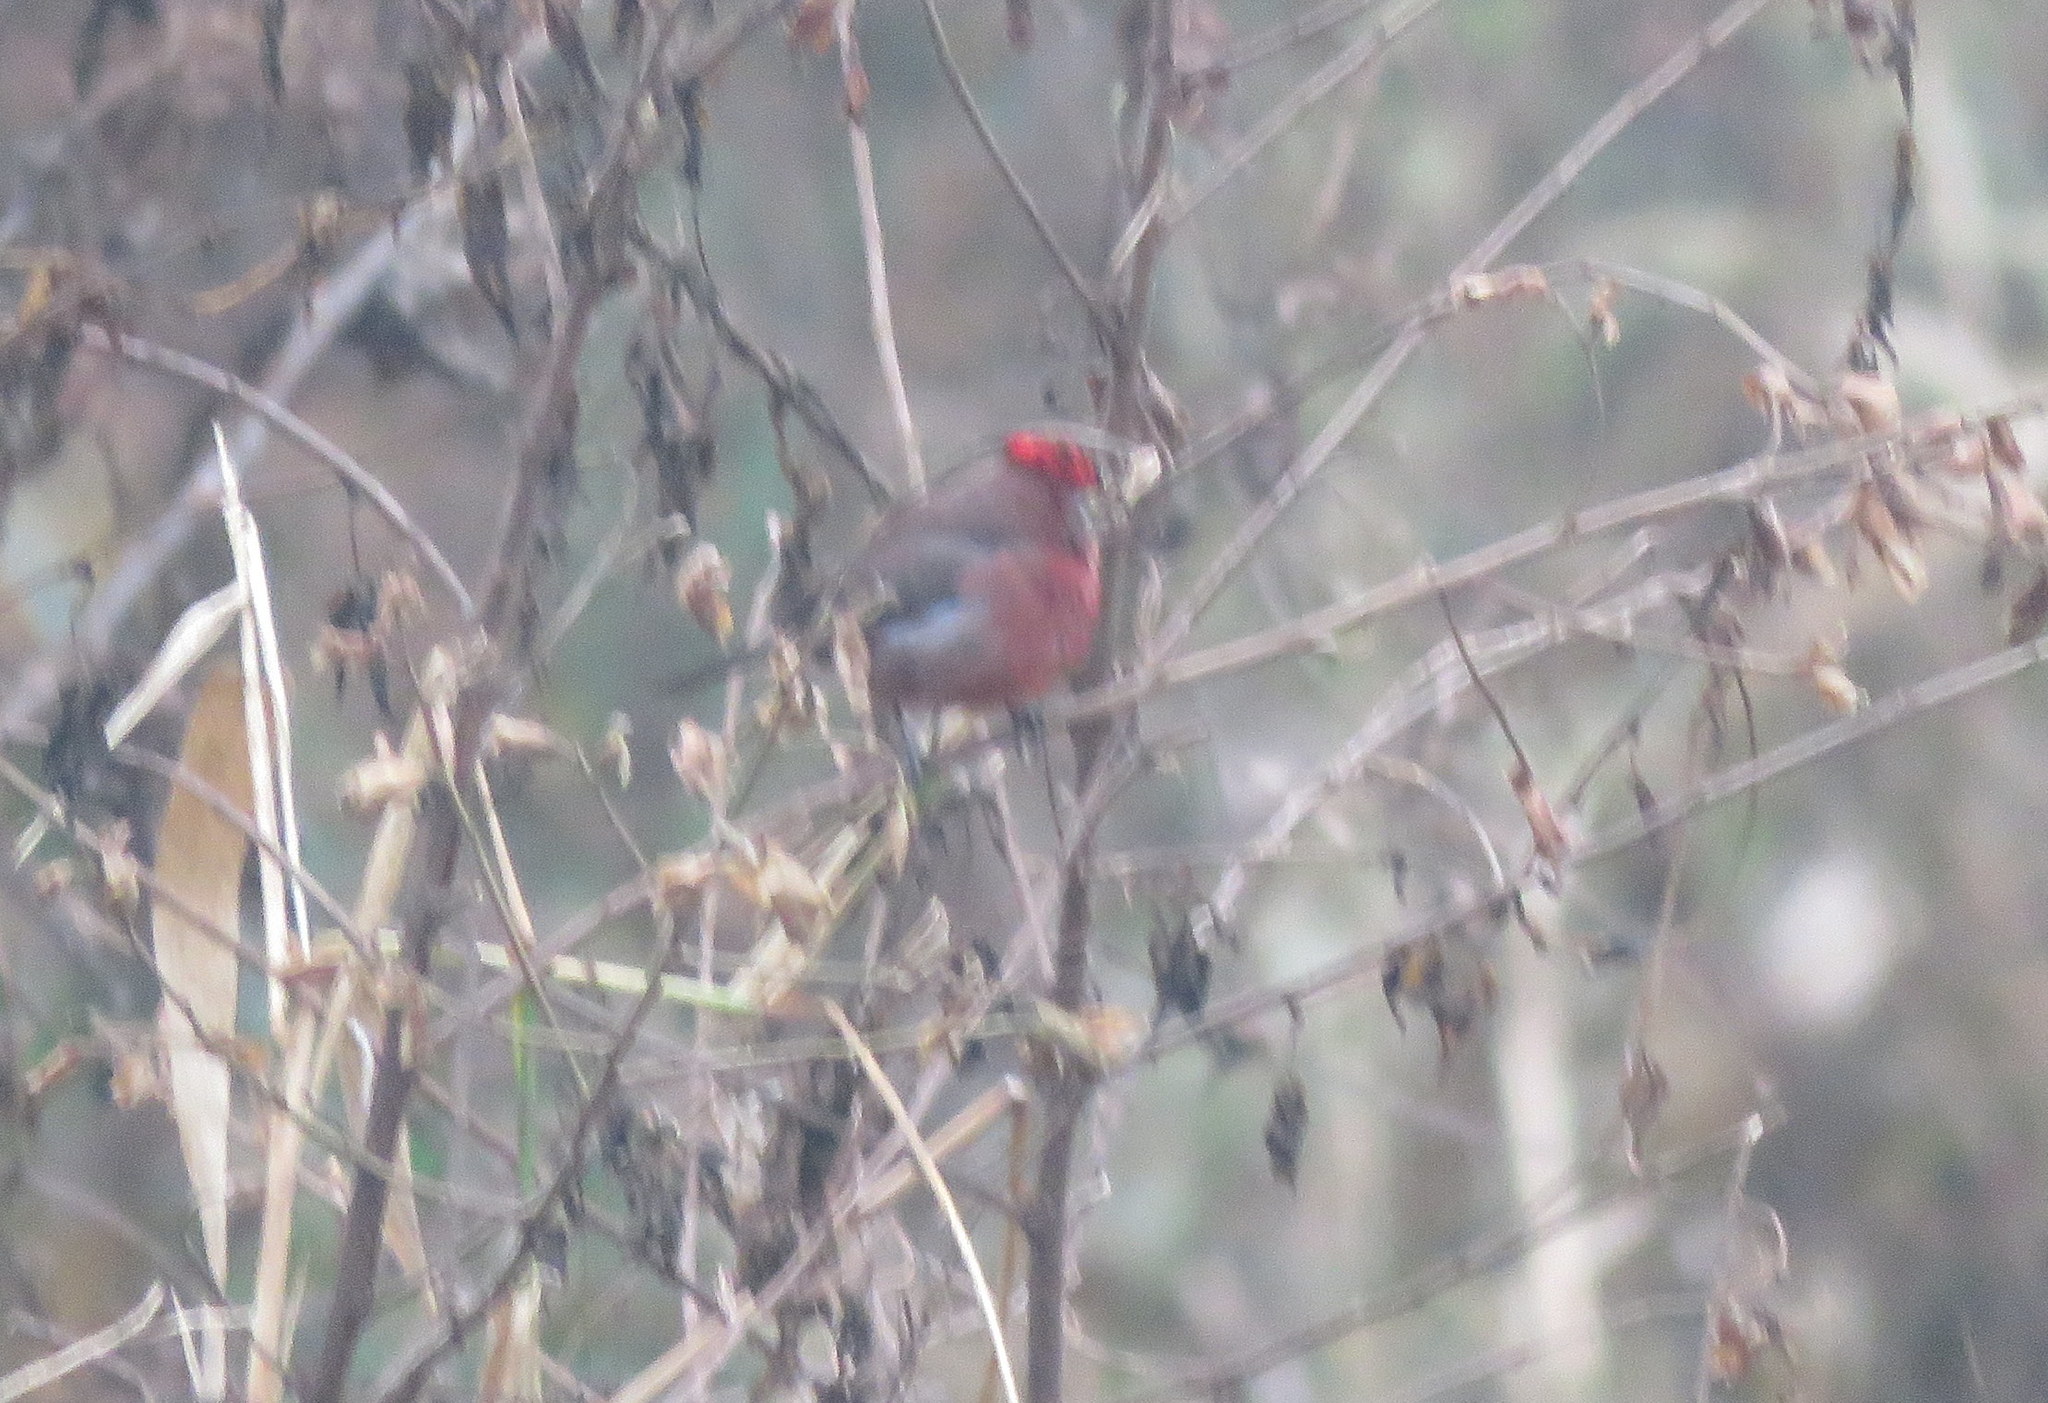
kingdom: Animalia
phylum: Chordata
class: Aves
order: Passeriformes
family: Thraupidae
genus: Coryphospingus
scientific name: Coryphospingus cucullatus
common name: Red pileated finch
